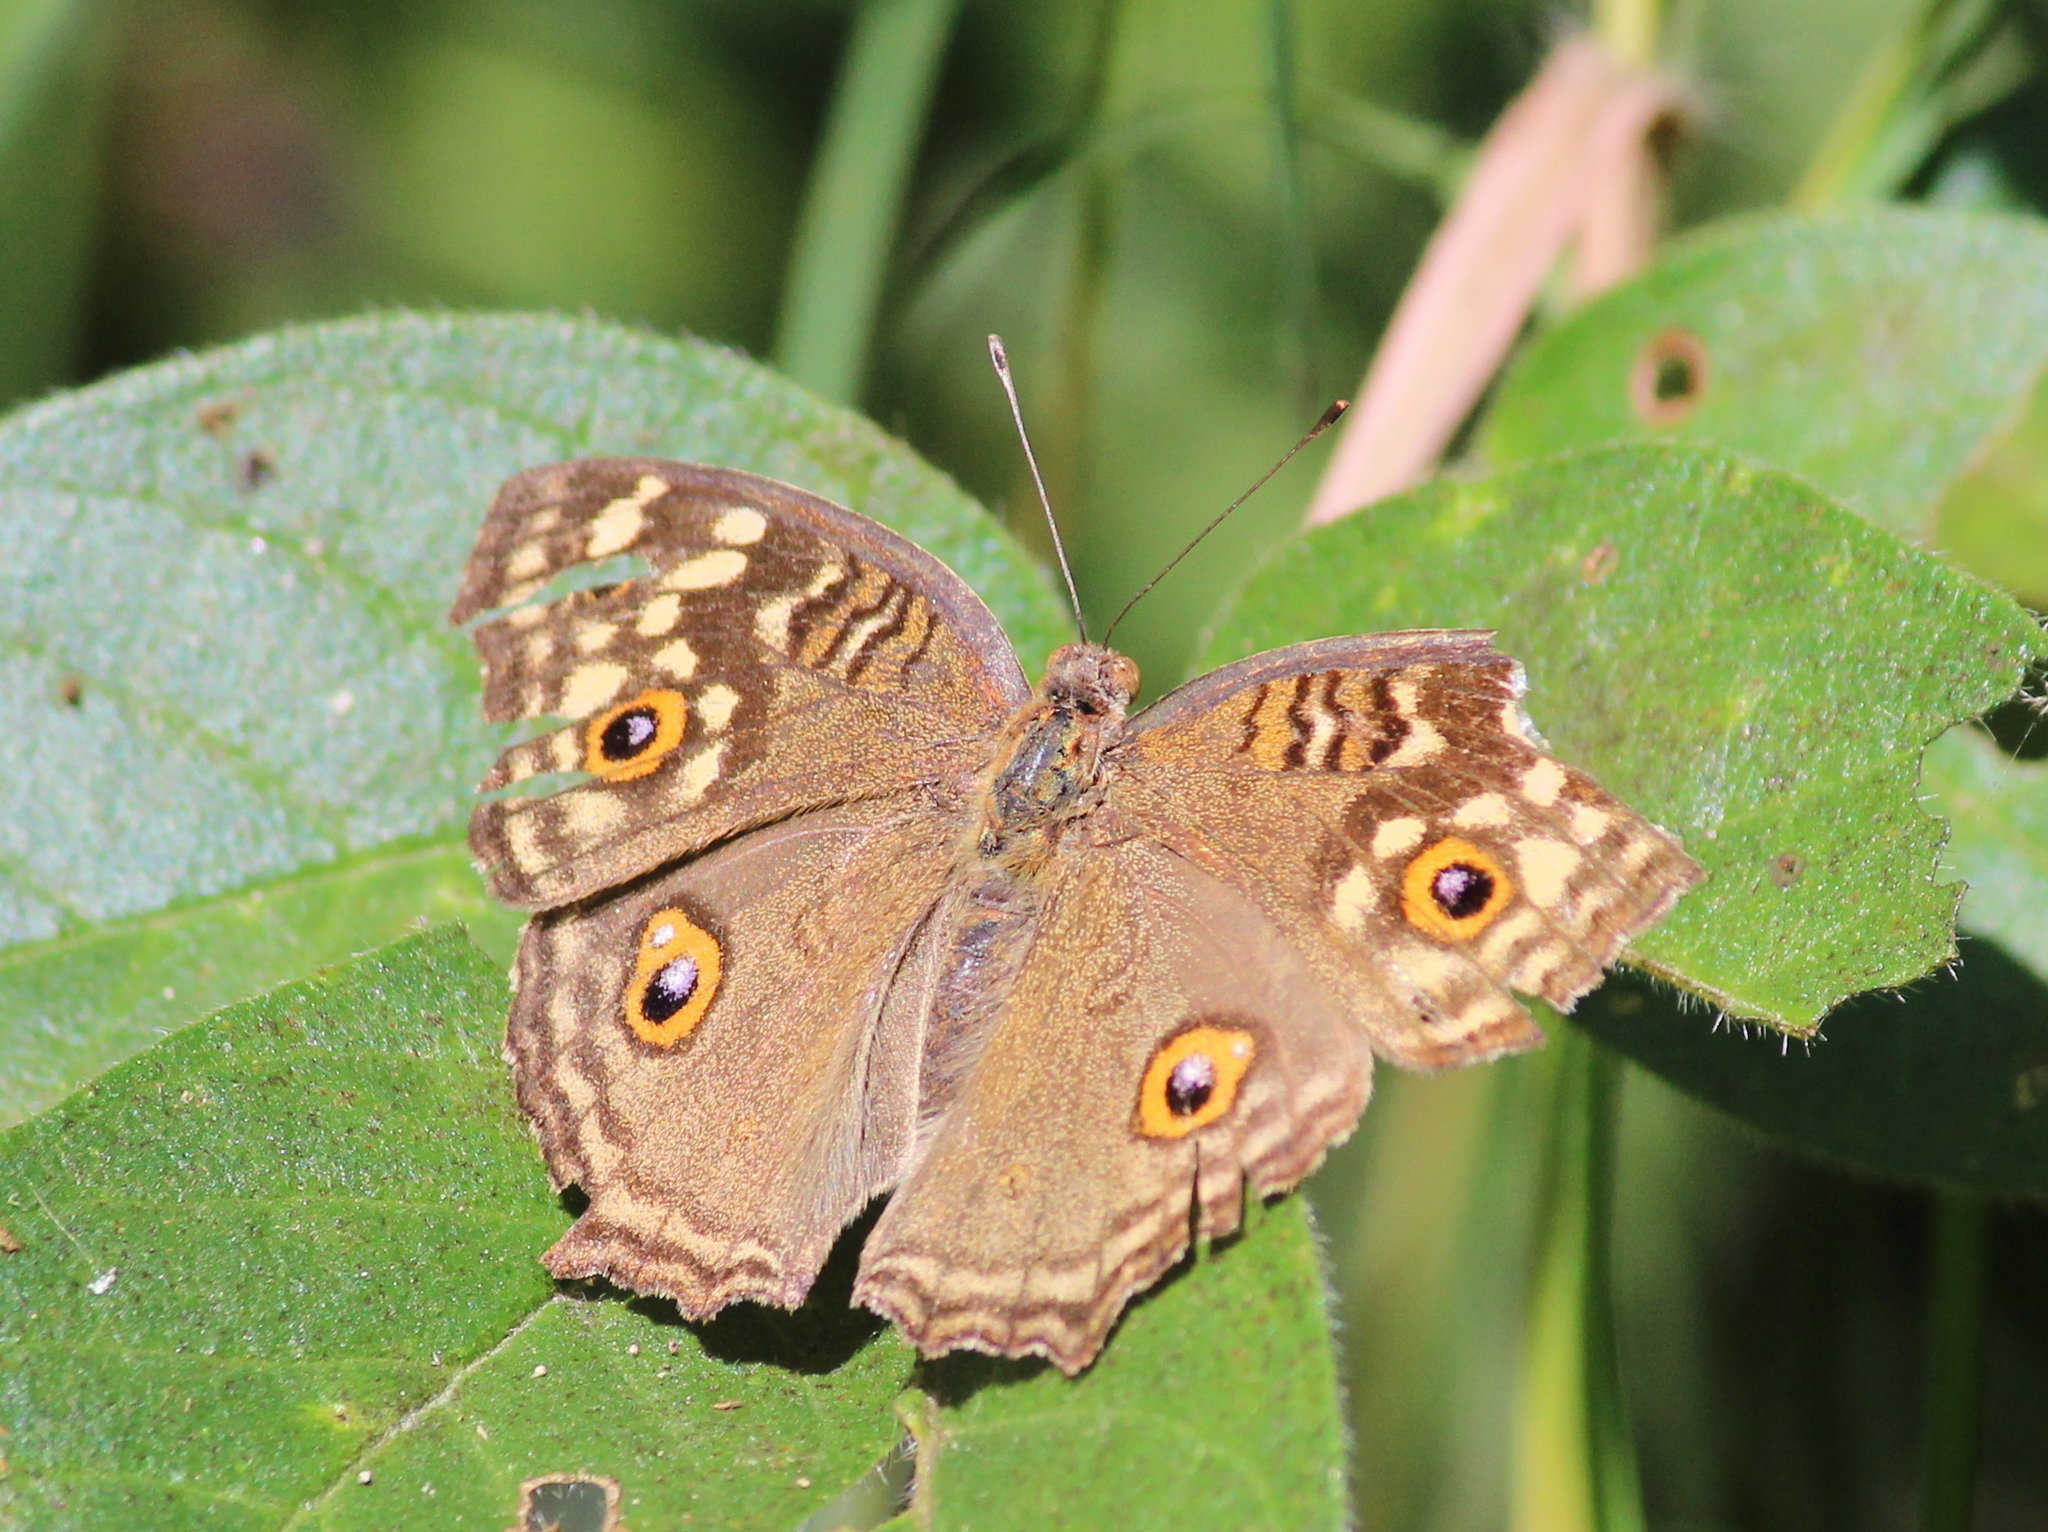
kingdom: Animalia
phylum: Arthropoda
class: Insecta
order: Lepidoptera
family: Nymphalidae
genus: Junonia
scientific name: Junonia lemonias
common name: Lemon pansy
